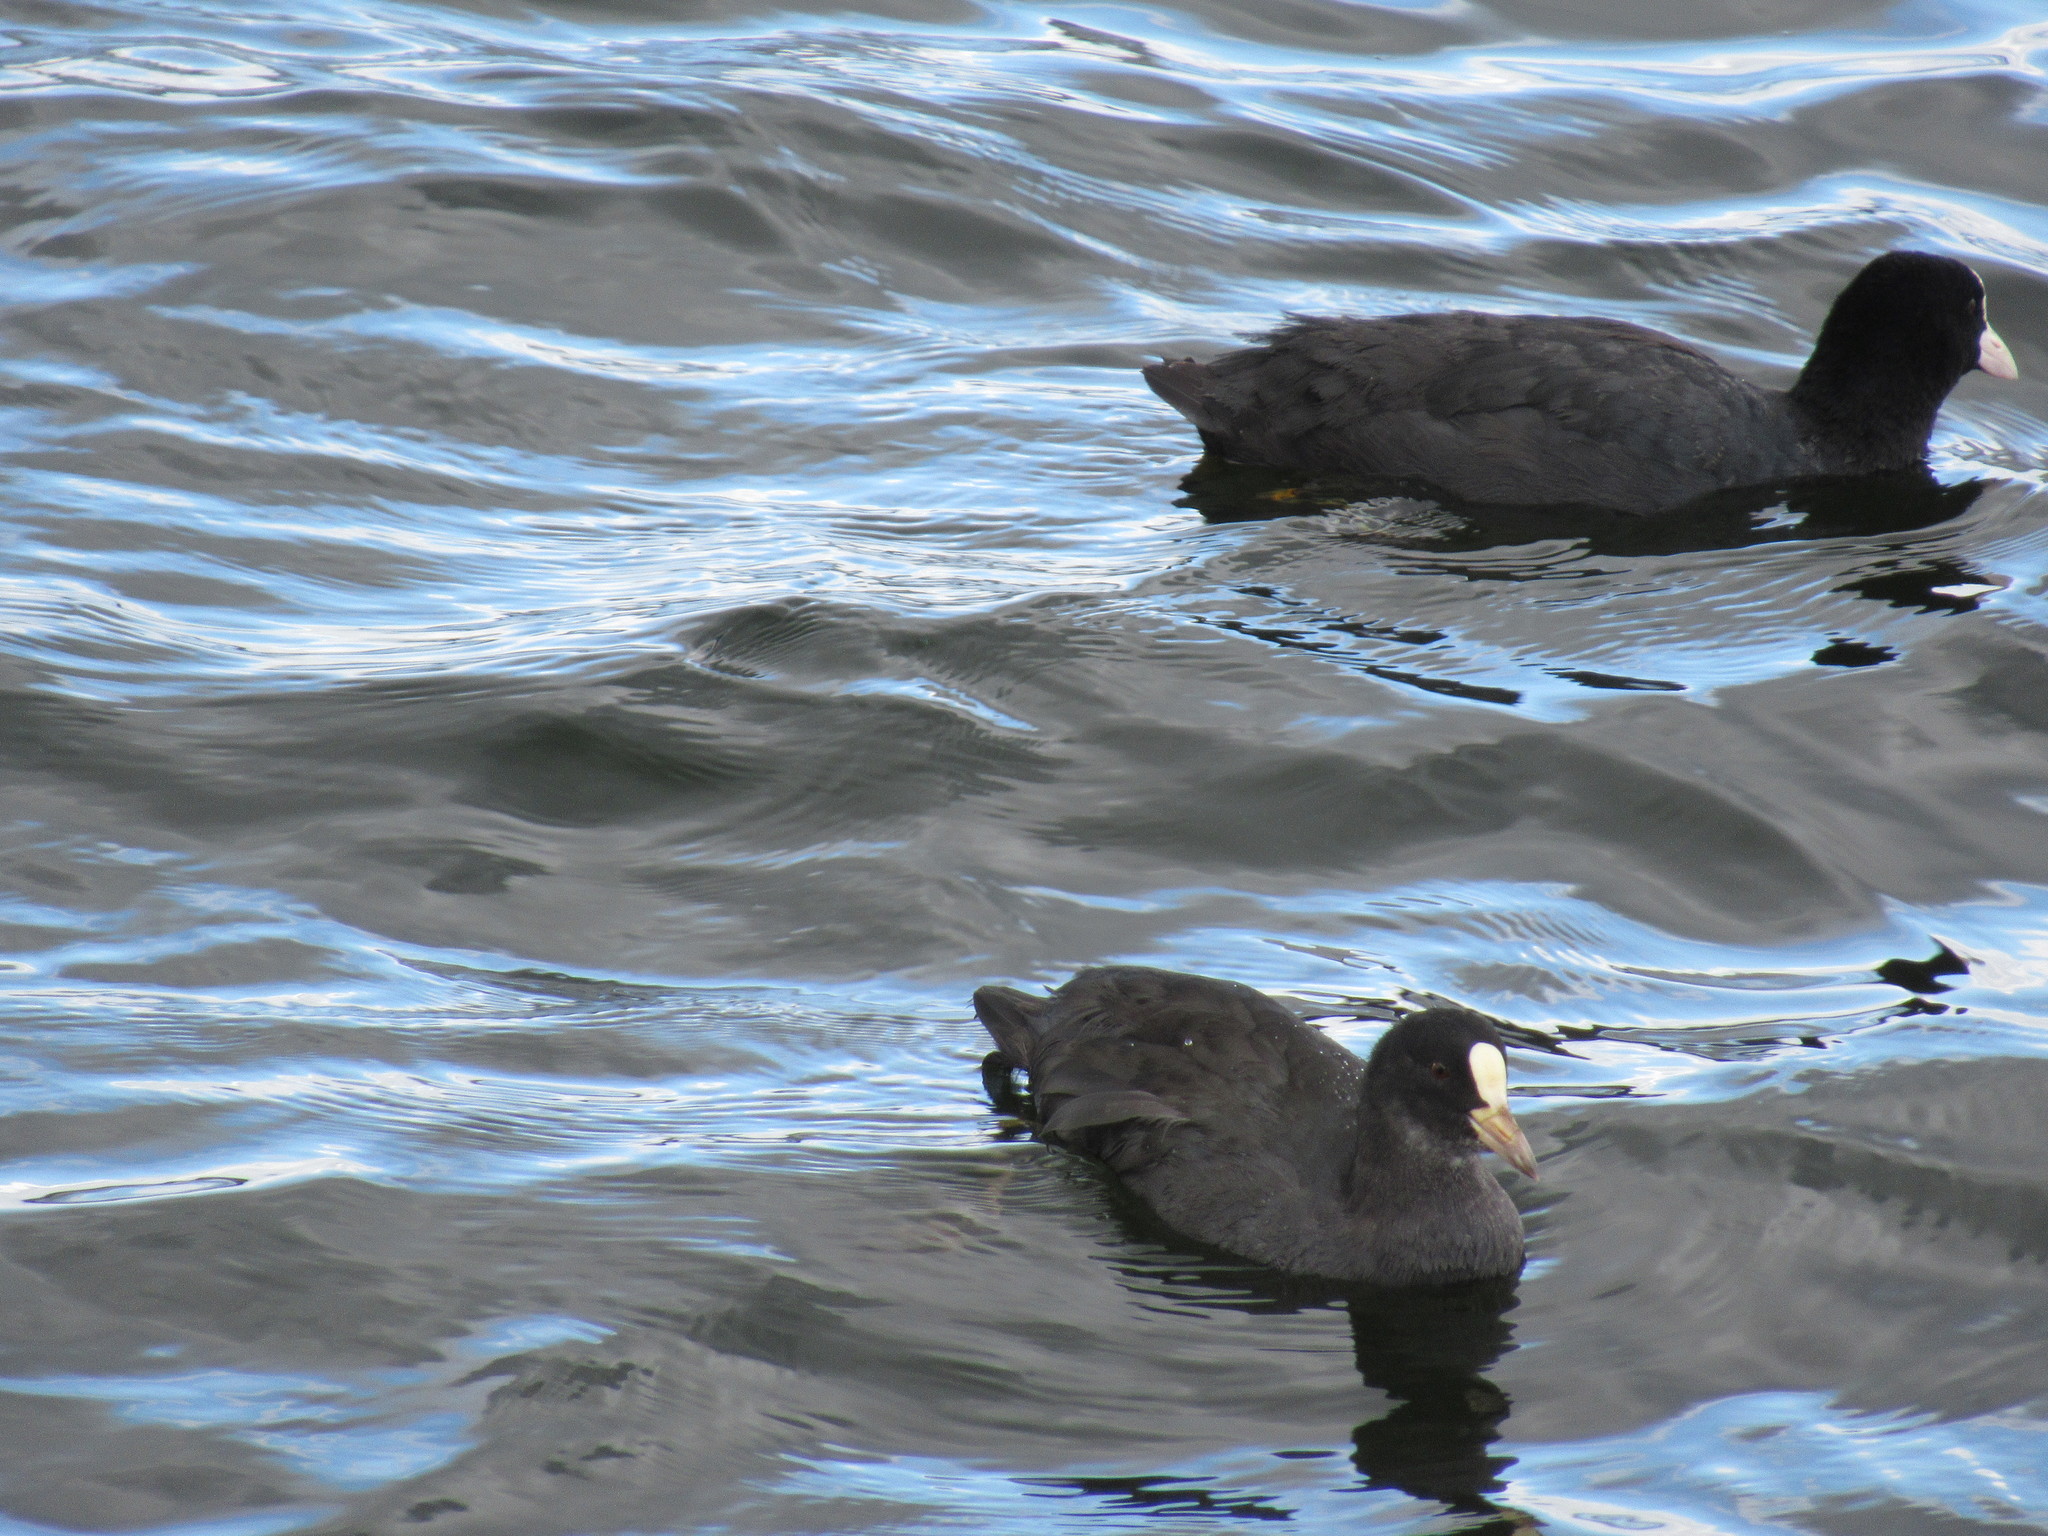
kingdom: Animalia
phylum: Chordata
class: Aves
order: Gruiformes
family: Rallidae
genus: Fulica
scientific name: Fulica atra
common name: Eurasian coot
